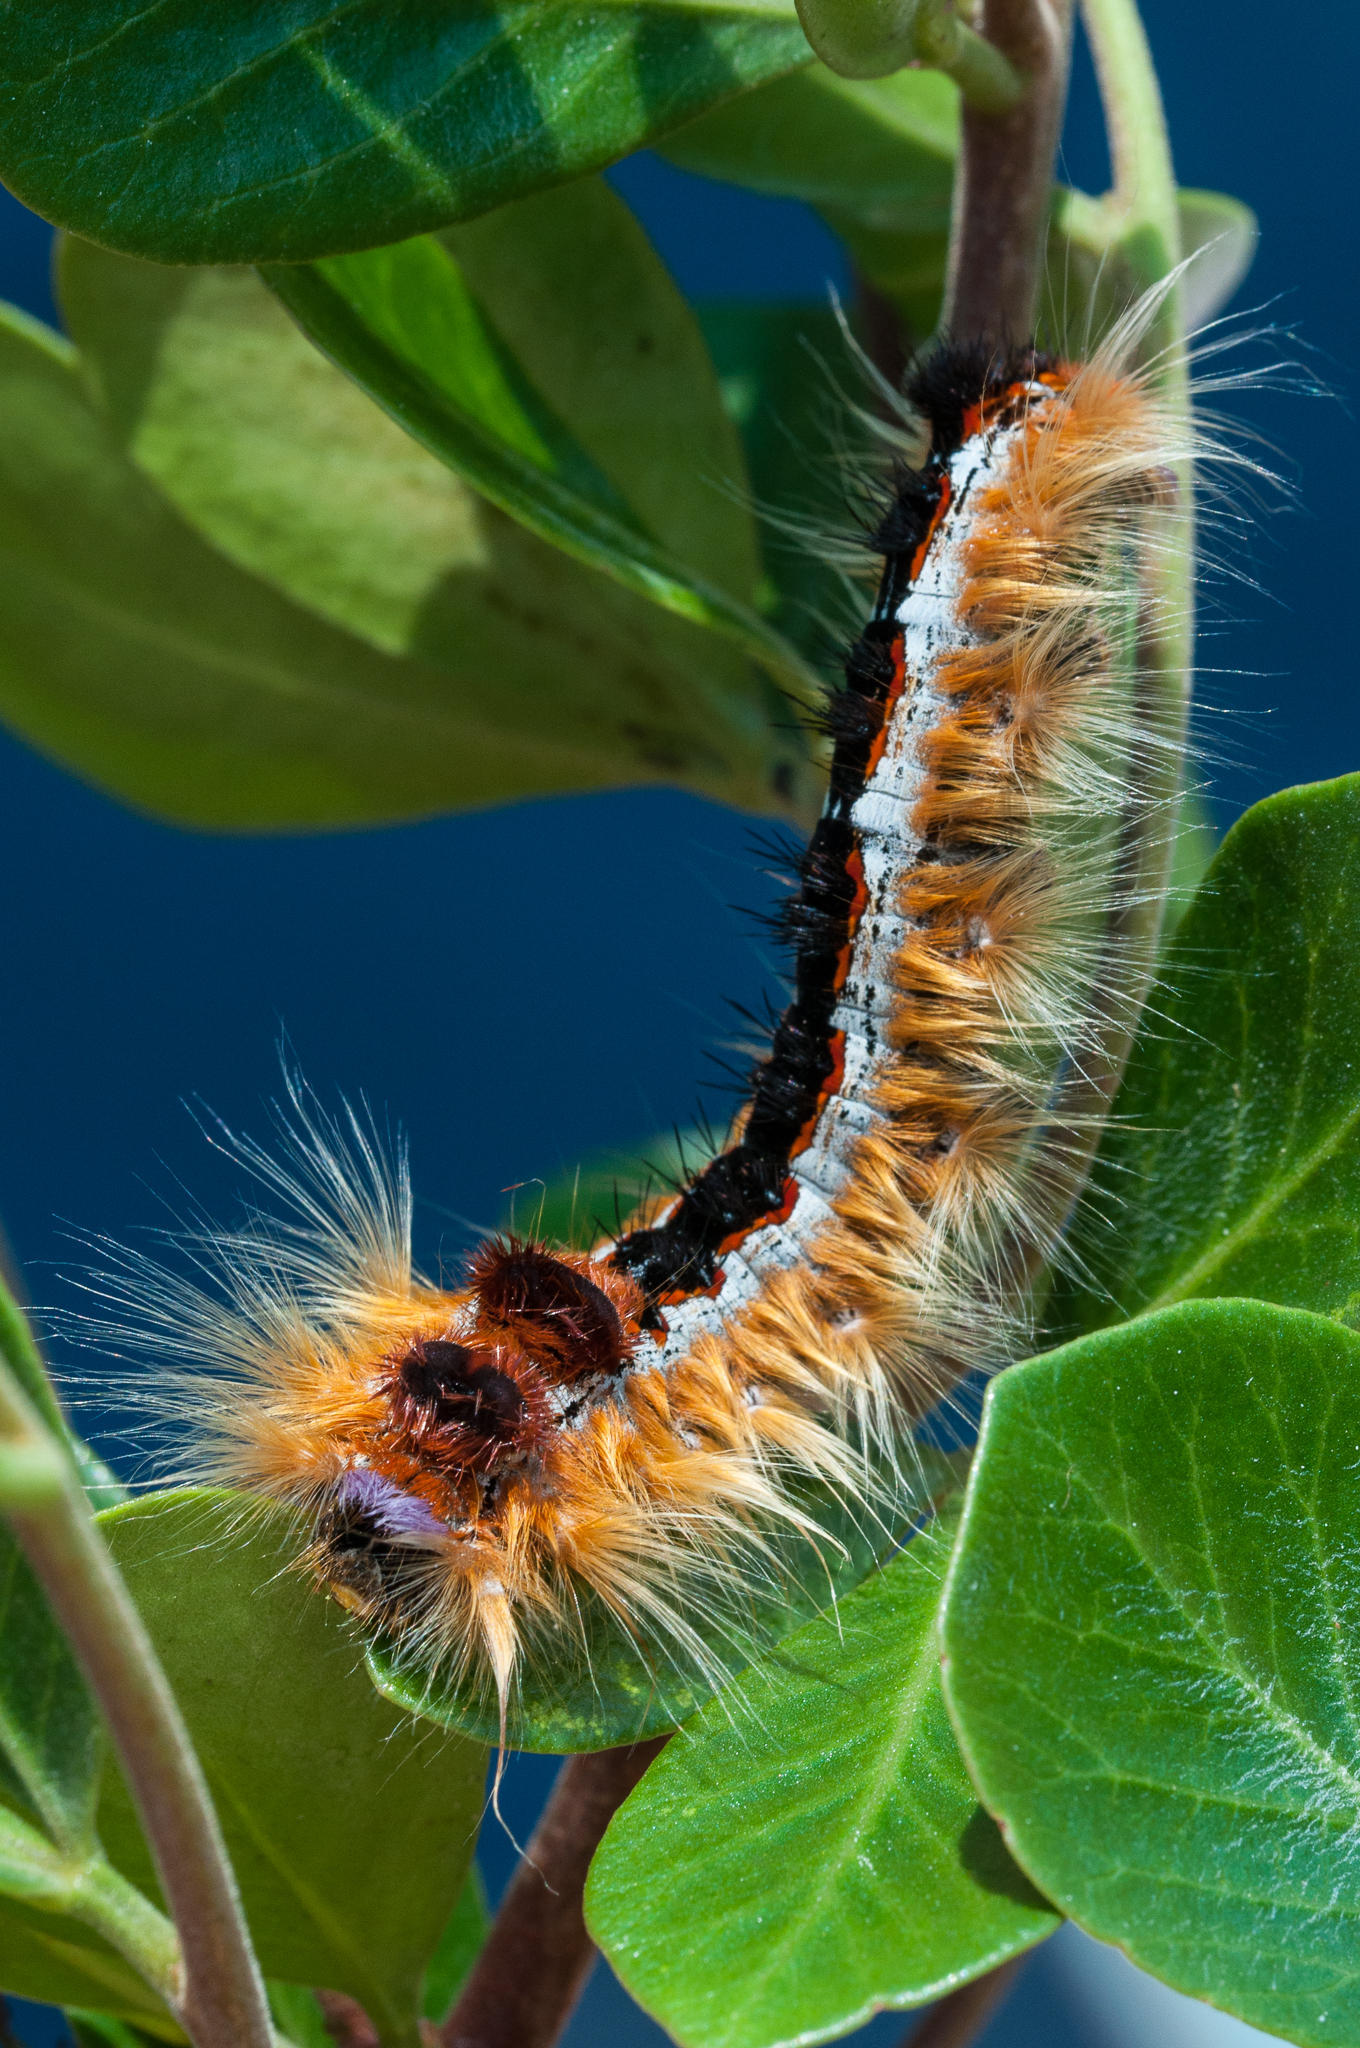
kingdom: Animalia
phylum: Arthropoda
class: Insecta
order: Lepidoptera
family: Lasiocampidae
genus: Eutricha
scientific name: Eutricha capensis
